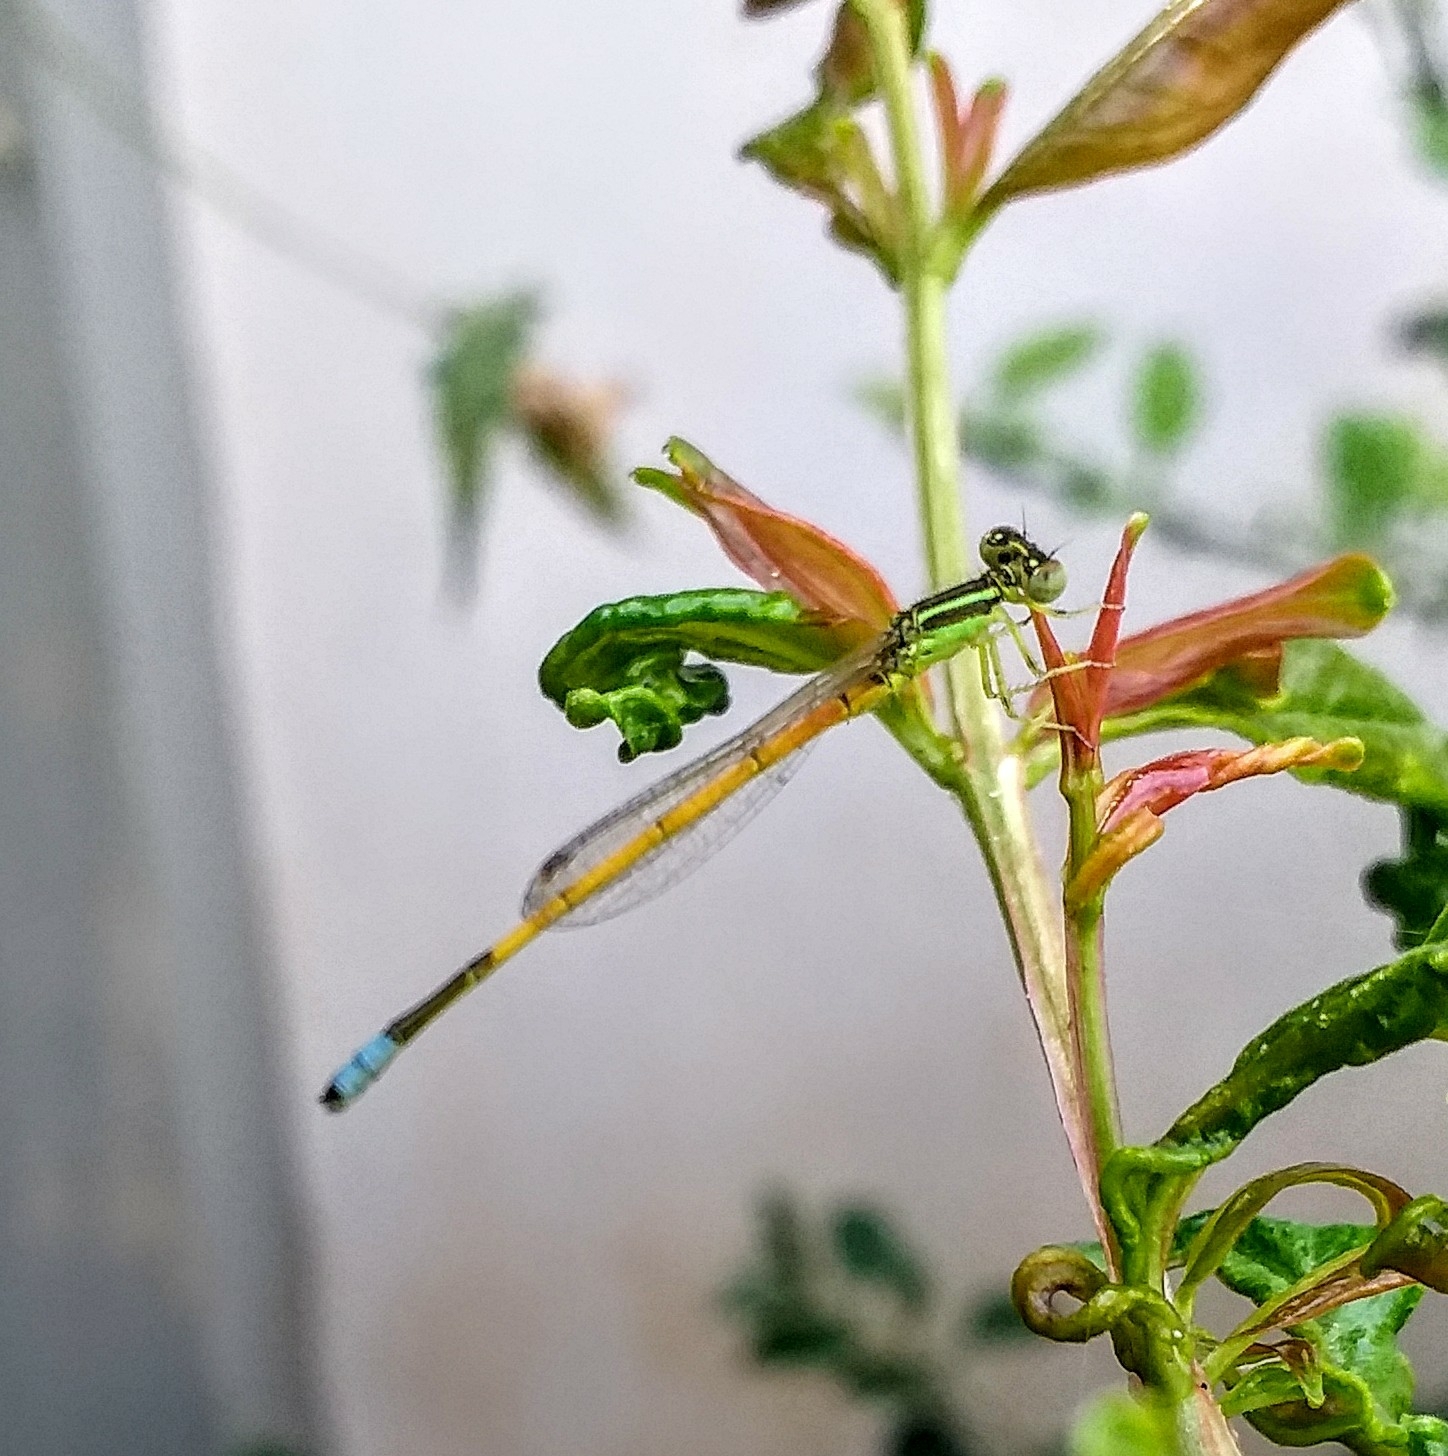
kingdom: Animalia
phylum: Arthropoda
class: Insecta
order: Odonata
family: Coenagrionidae
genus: Ischnura
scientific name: Ischnura rubilio
